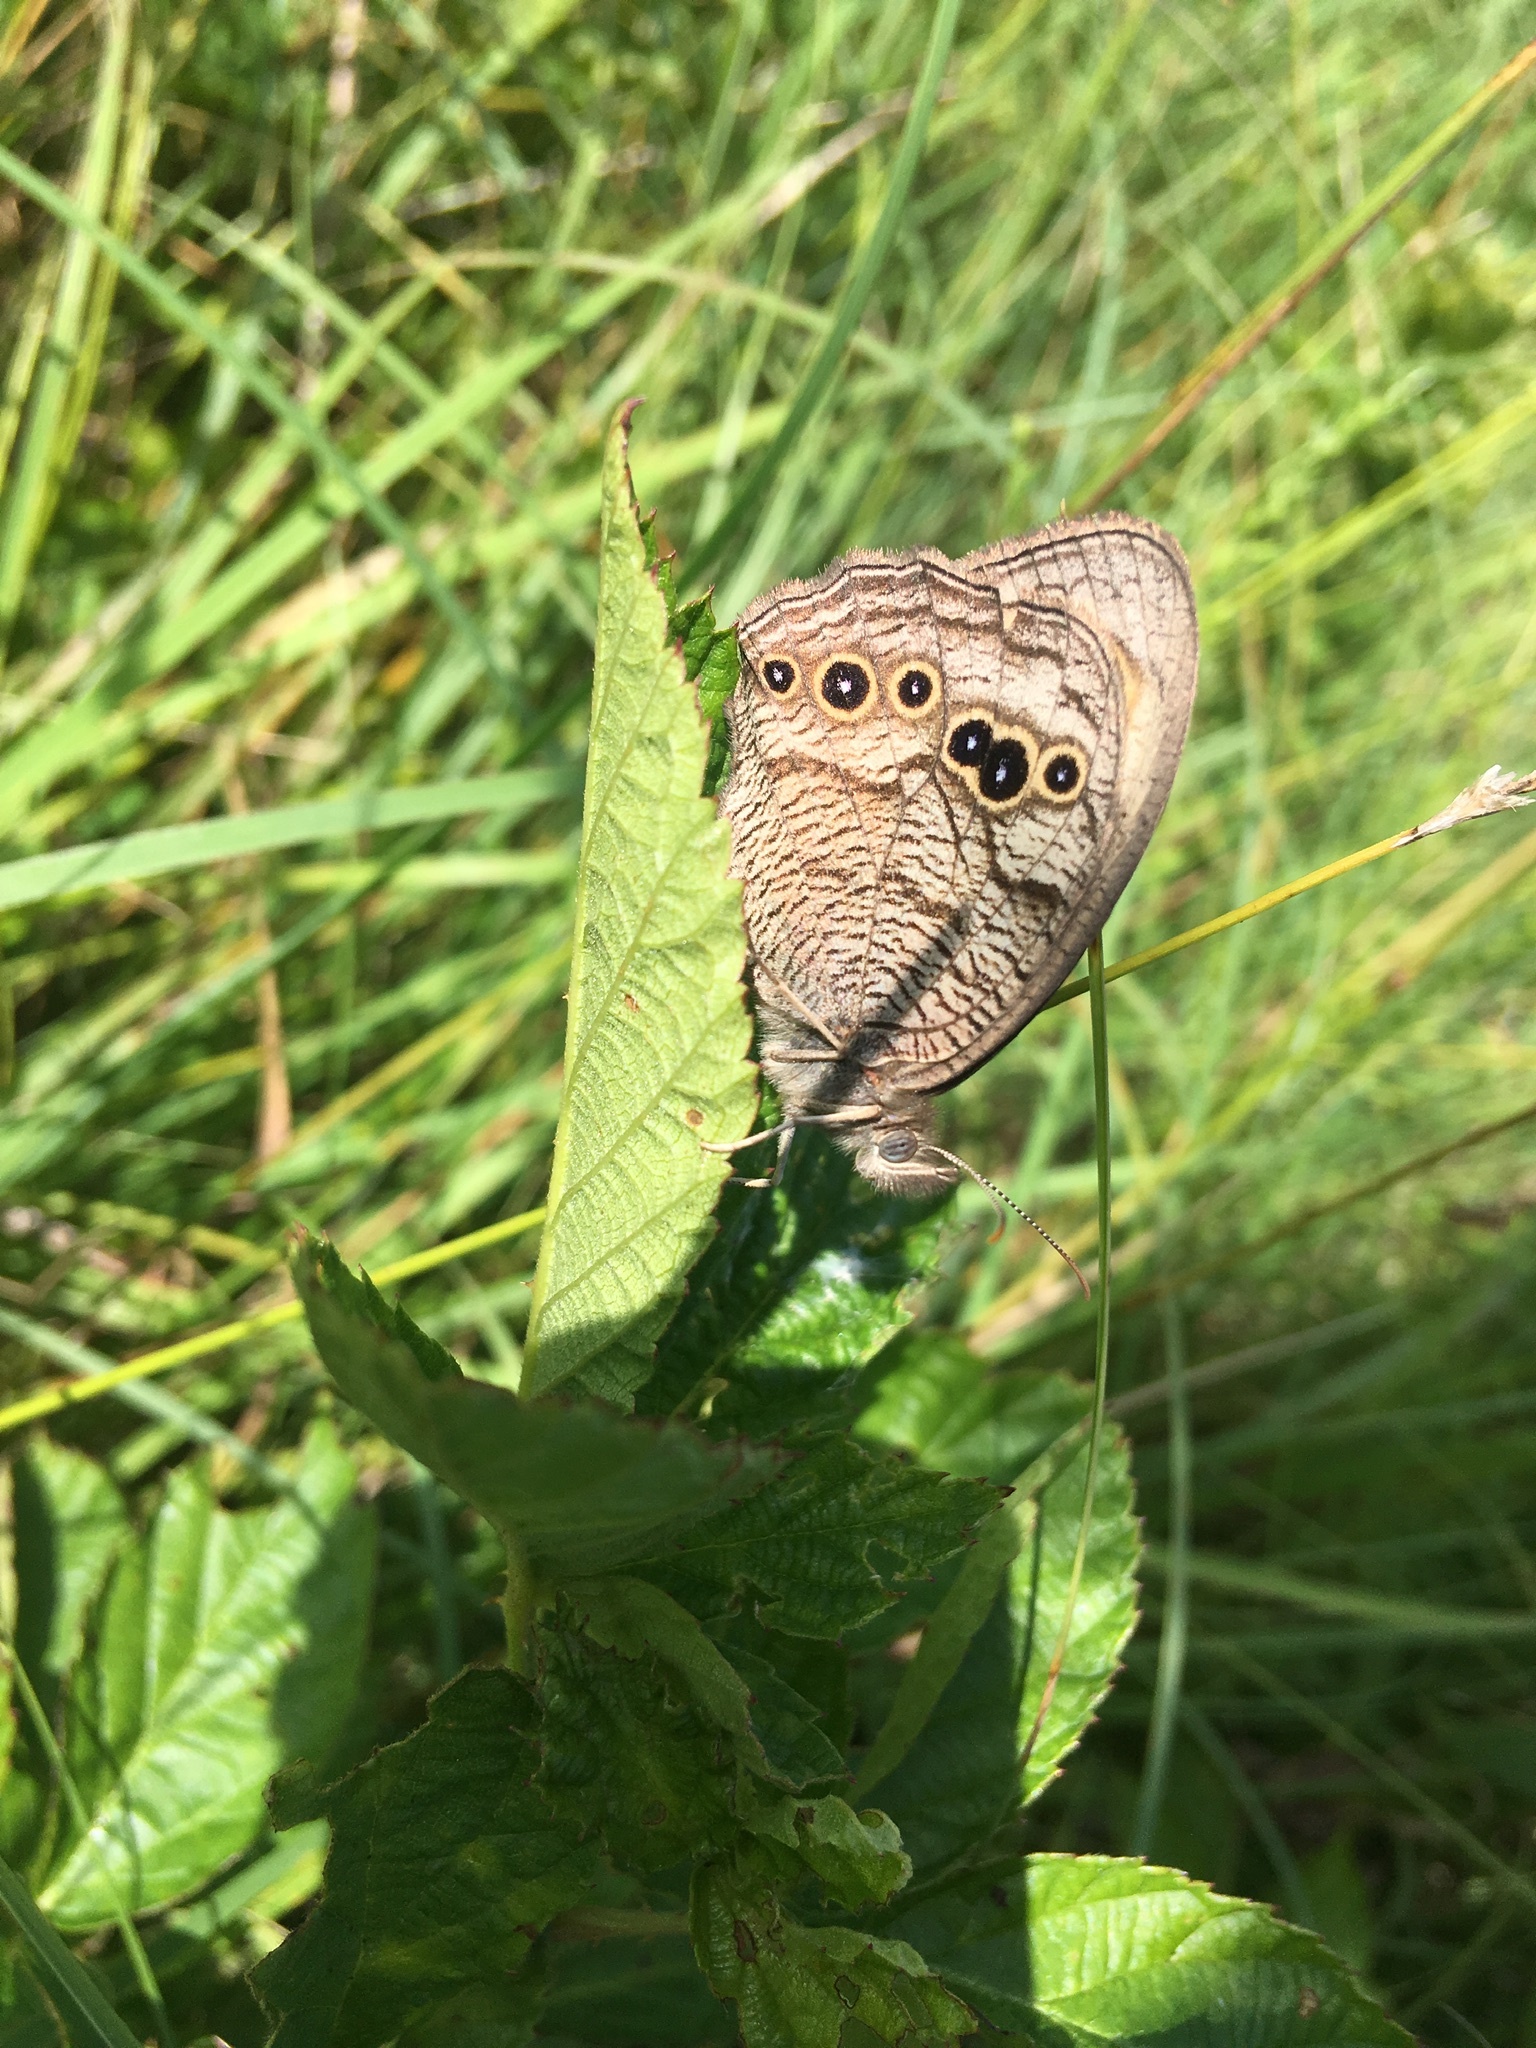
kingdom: Animalia
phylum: Arthropoda
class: Insecta
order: Lepidoptera
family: Nymphalidae
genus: Cercyonis
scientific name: Cercyonis pegala
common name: Common wood-nymph
